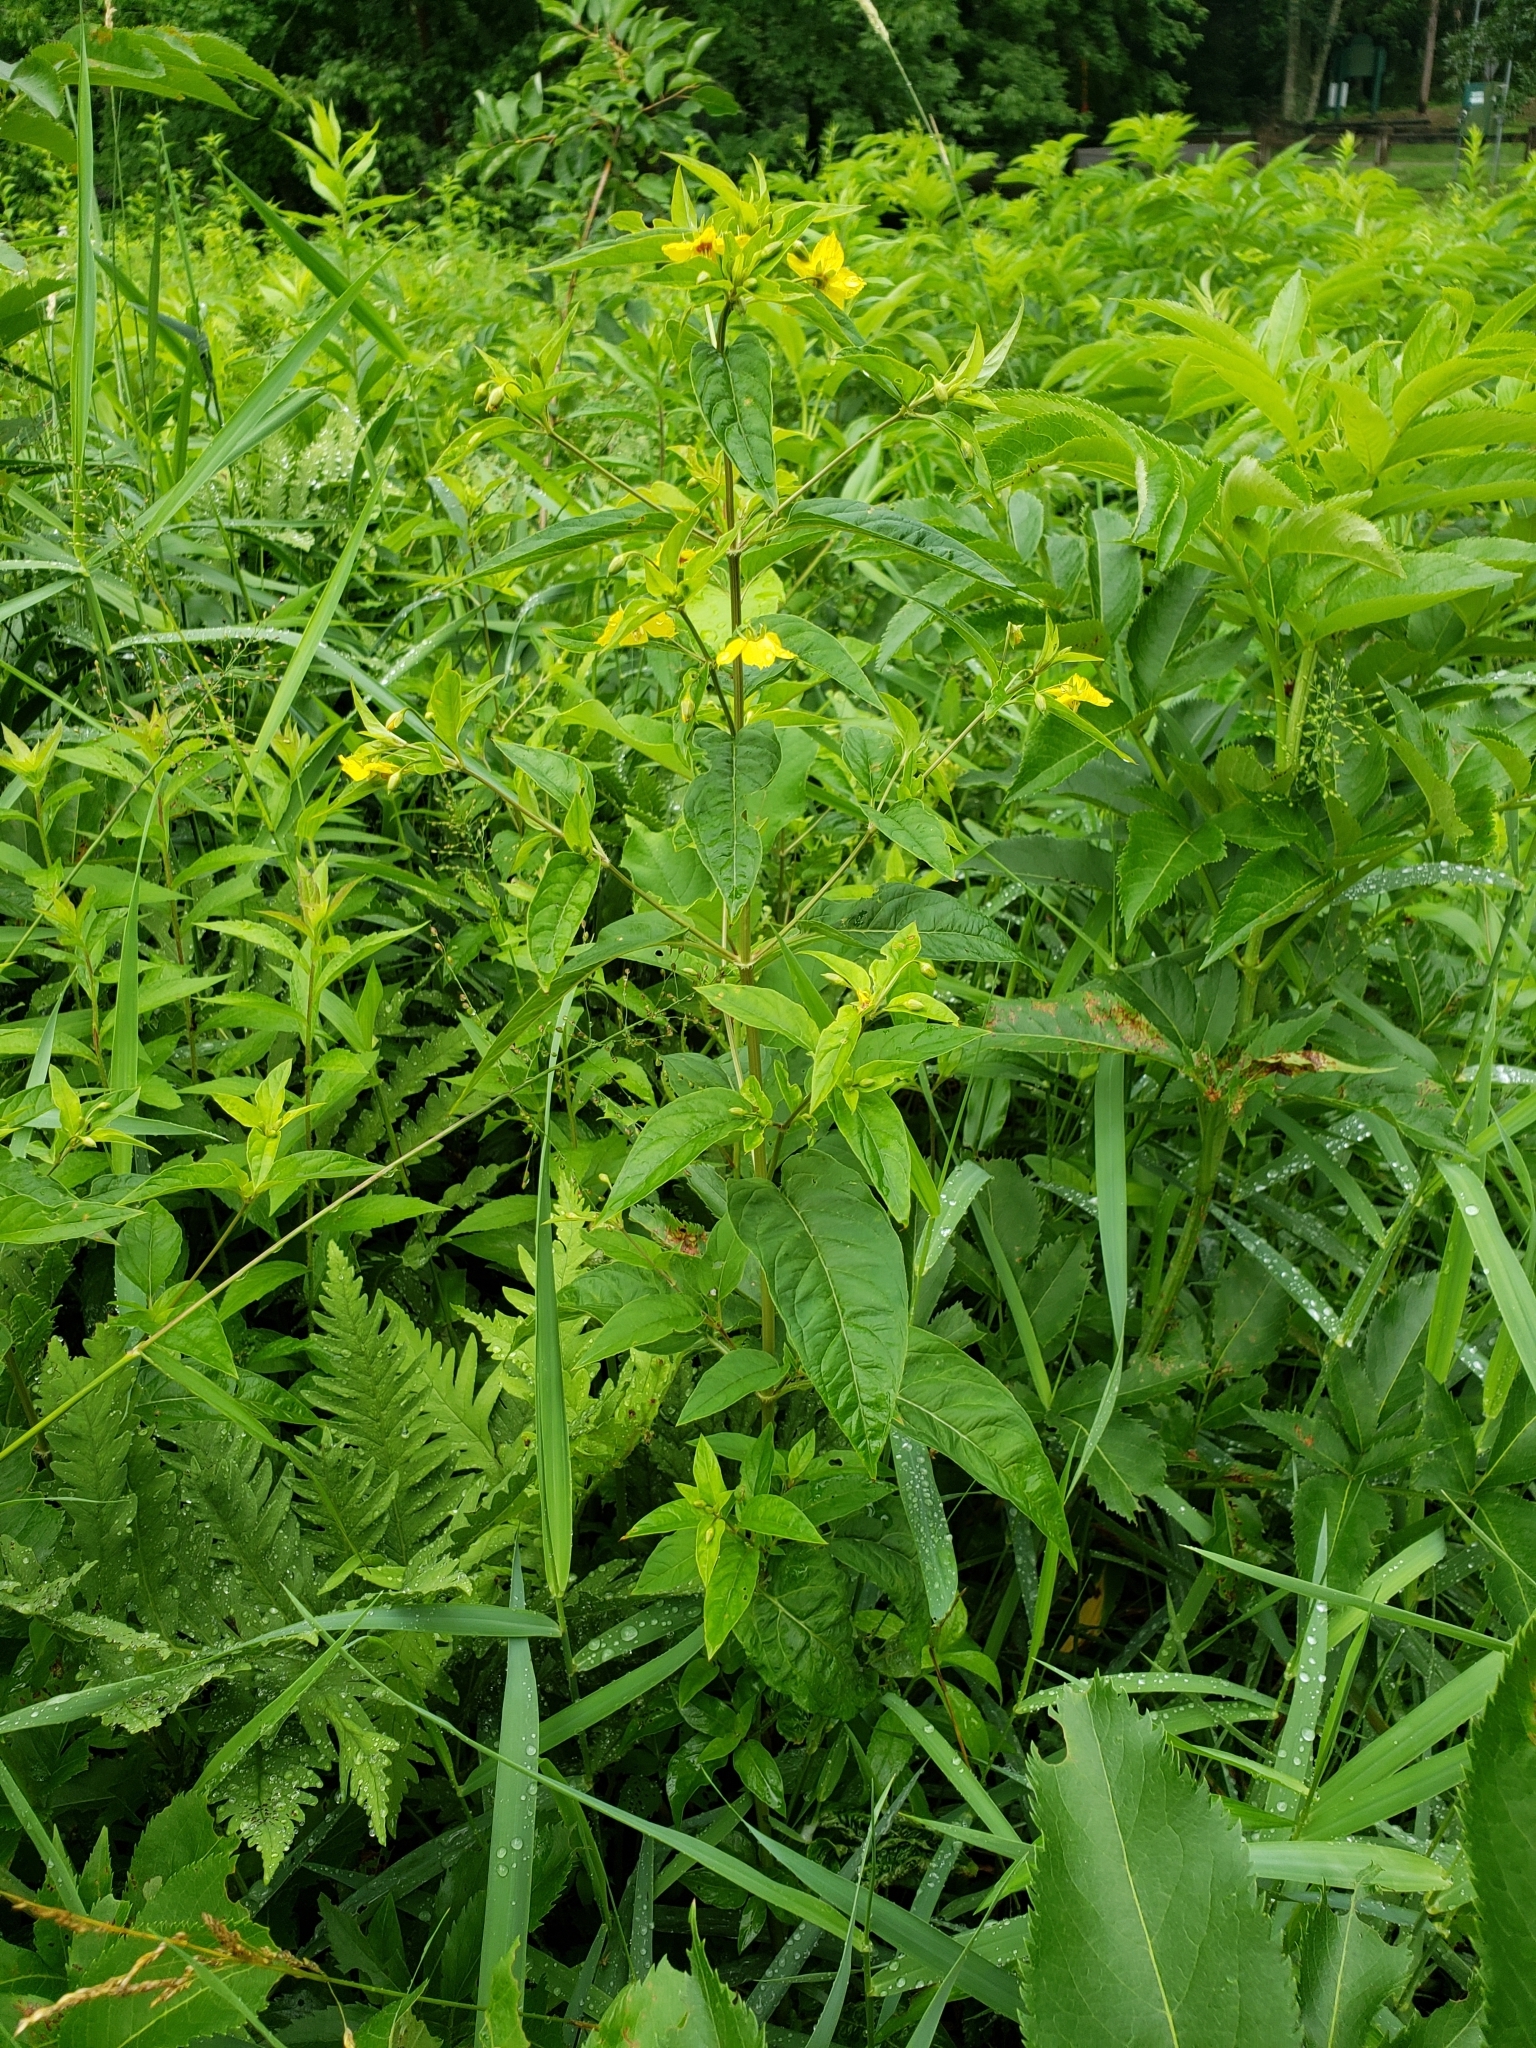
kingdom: Plantae
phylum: Tracheophyta
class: Magnoliopsida
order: Ericales
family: Primulaceae
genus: Lysimachia
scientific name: Lysimachia ciliata
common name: Fringed loosestrife
